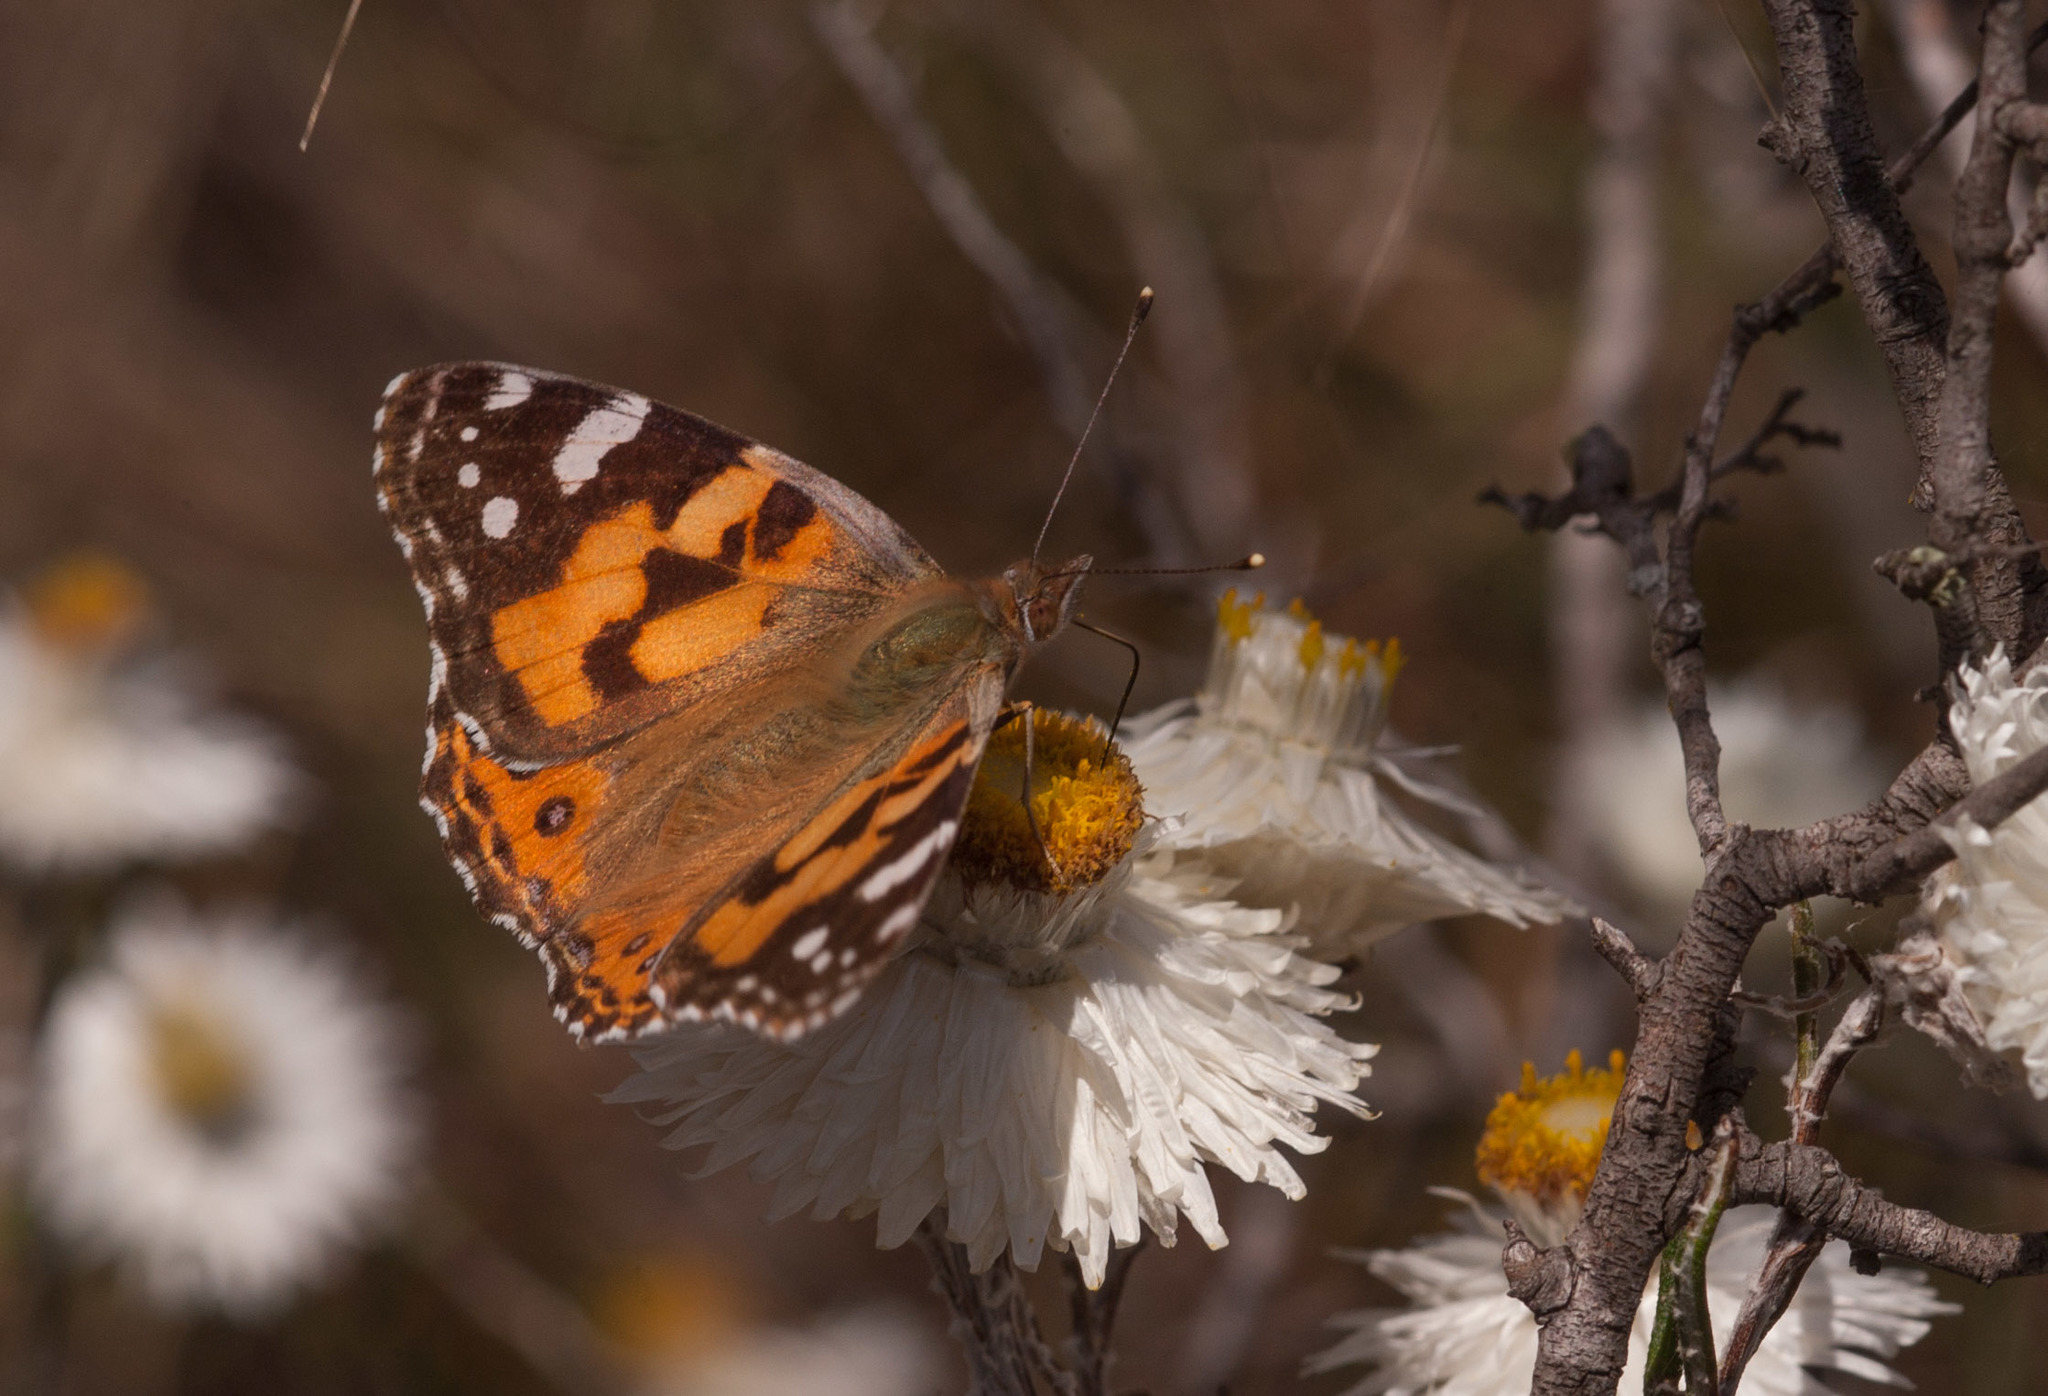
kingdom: Animalia
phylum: Arthropoda
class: Insecta
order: Lepidoptera
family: Nymphalidae
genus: Vanessa
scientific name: Vanessa kershawi
